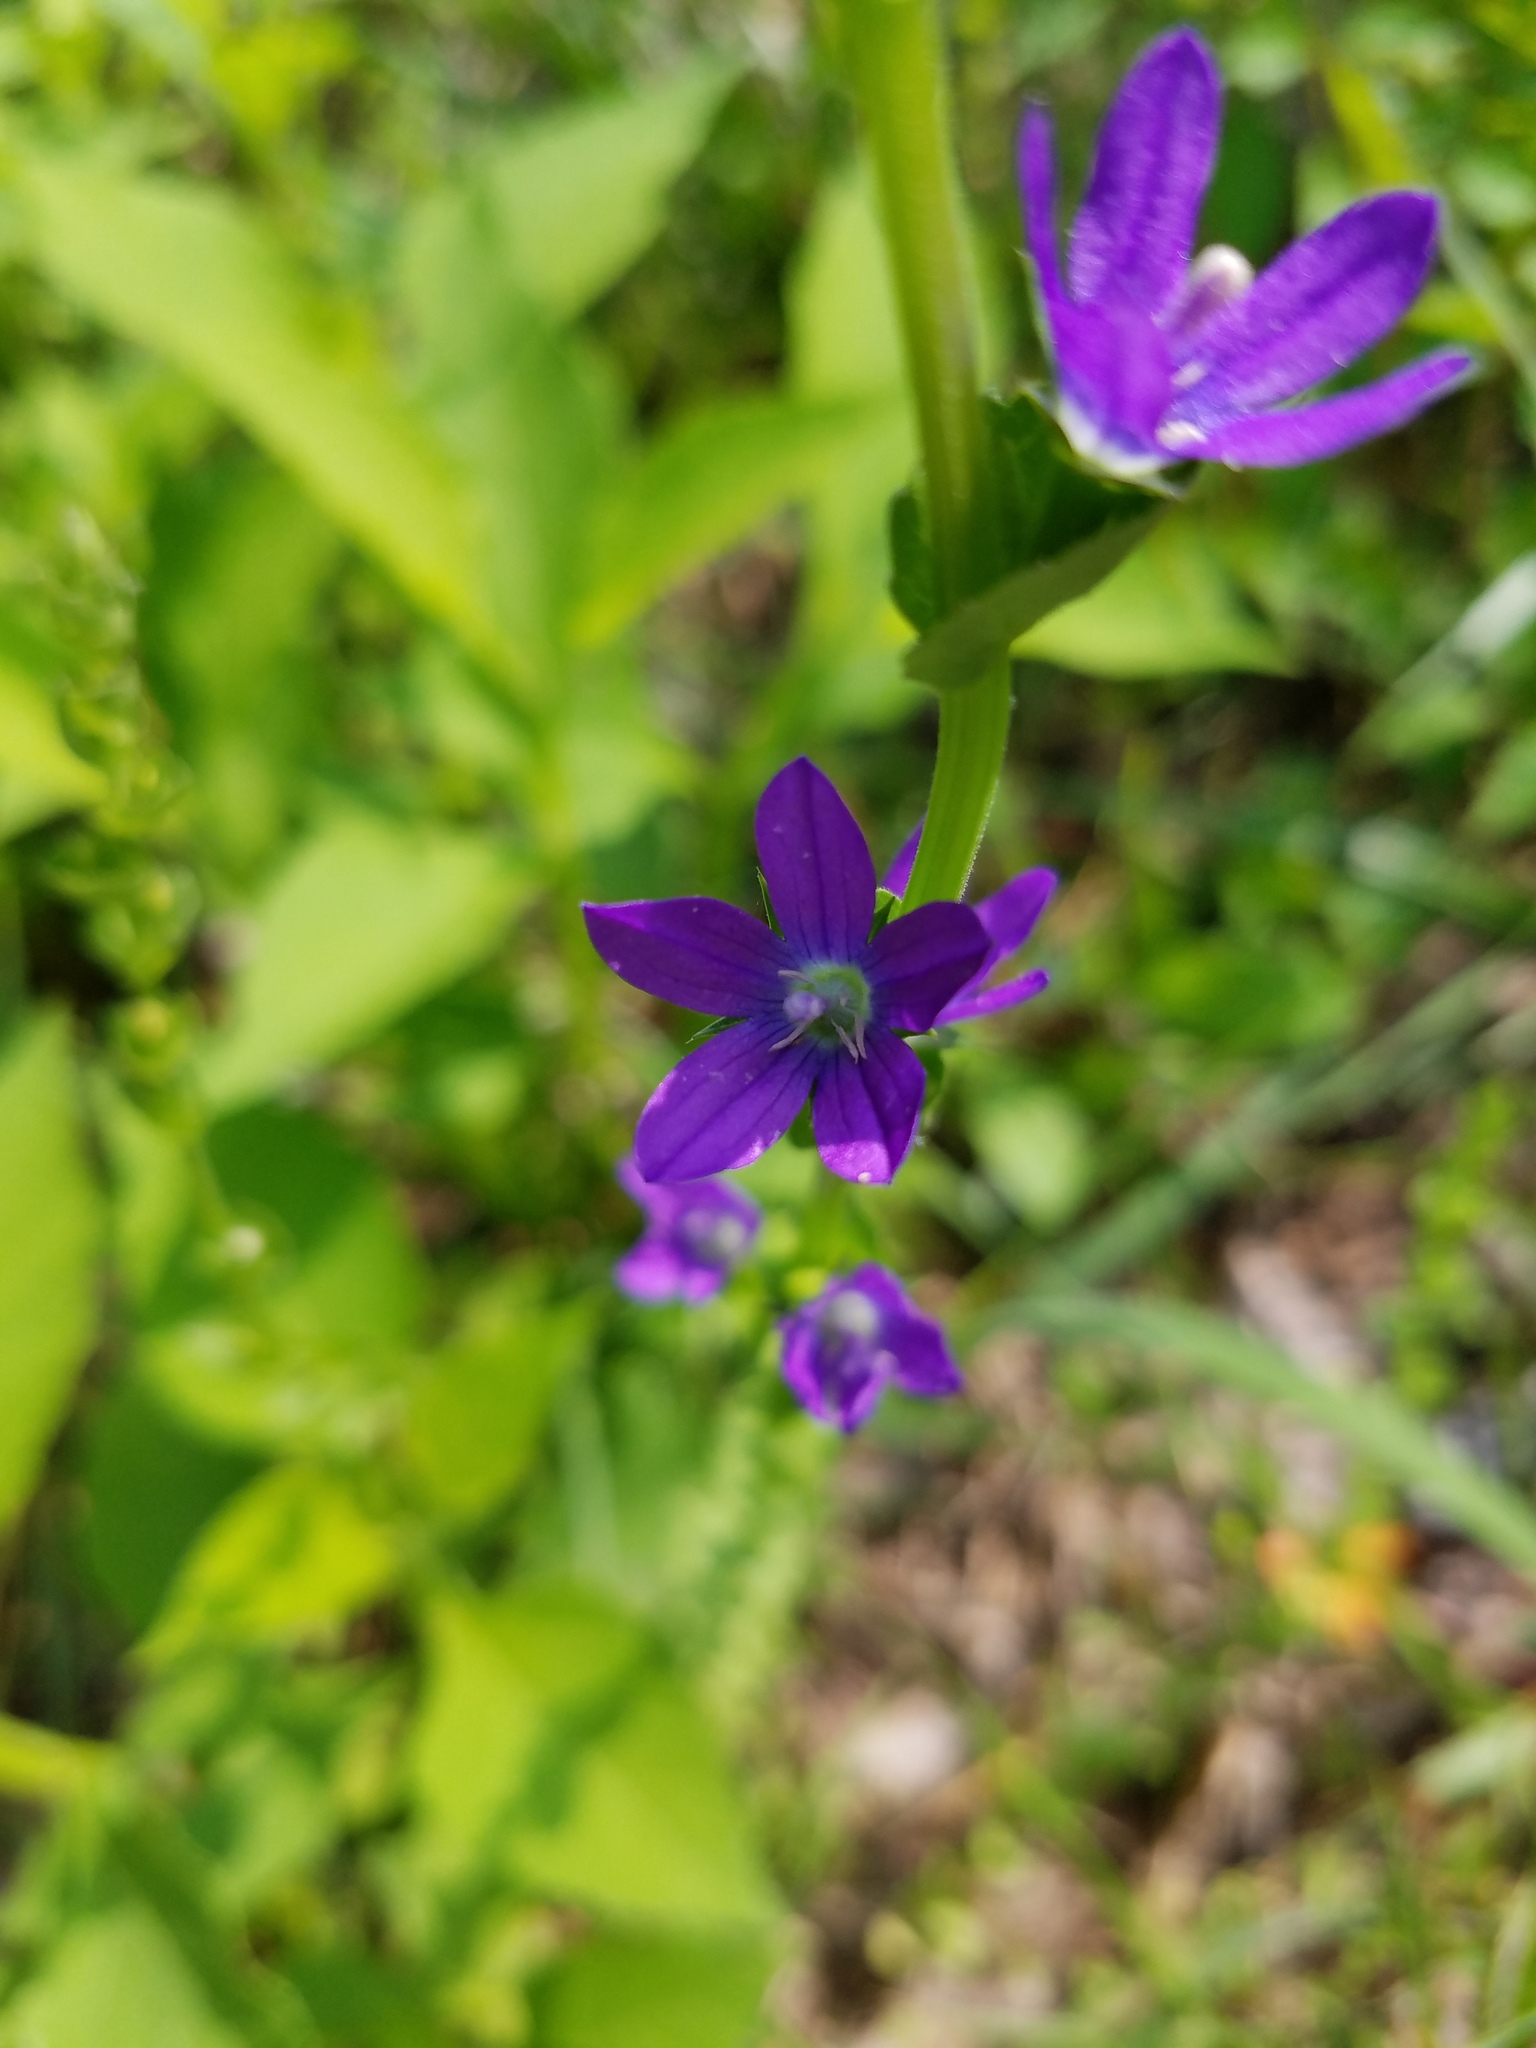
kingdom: Plantae
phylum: Tracheophyta
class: Magnoliopsida
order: Asterales
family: Campanulaceae
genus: Triodanis
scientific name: Triodanis perfoliata
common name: Clasping venus' looking-glass
